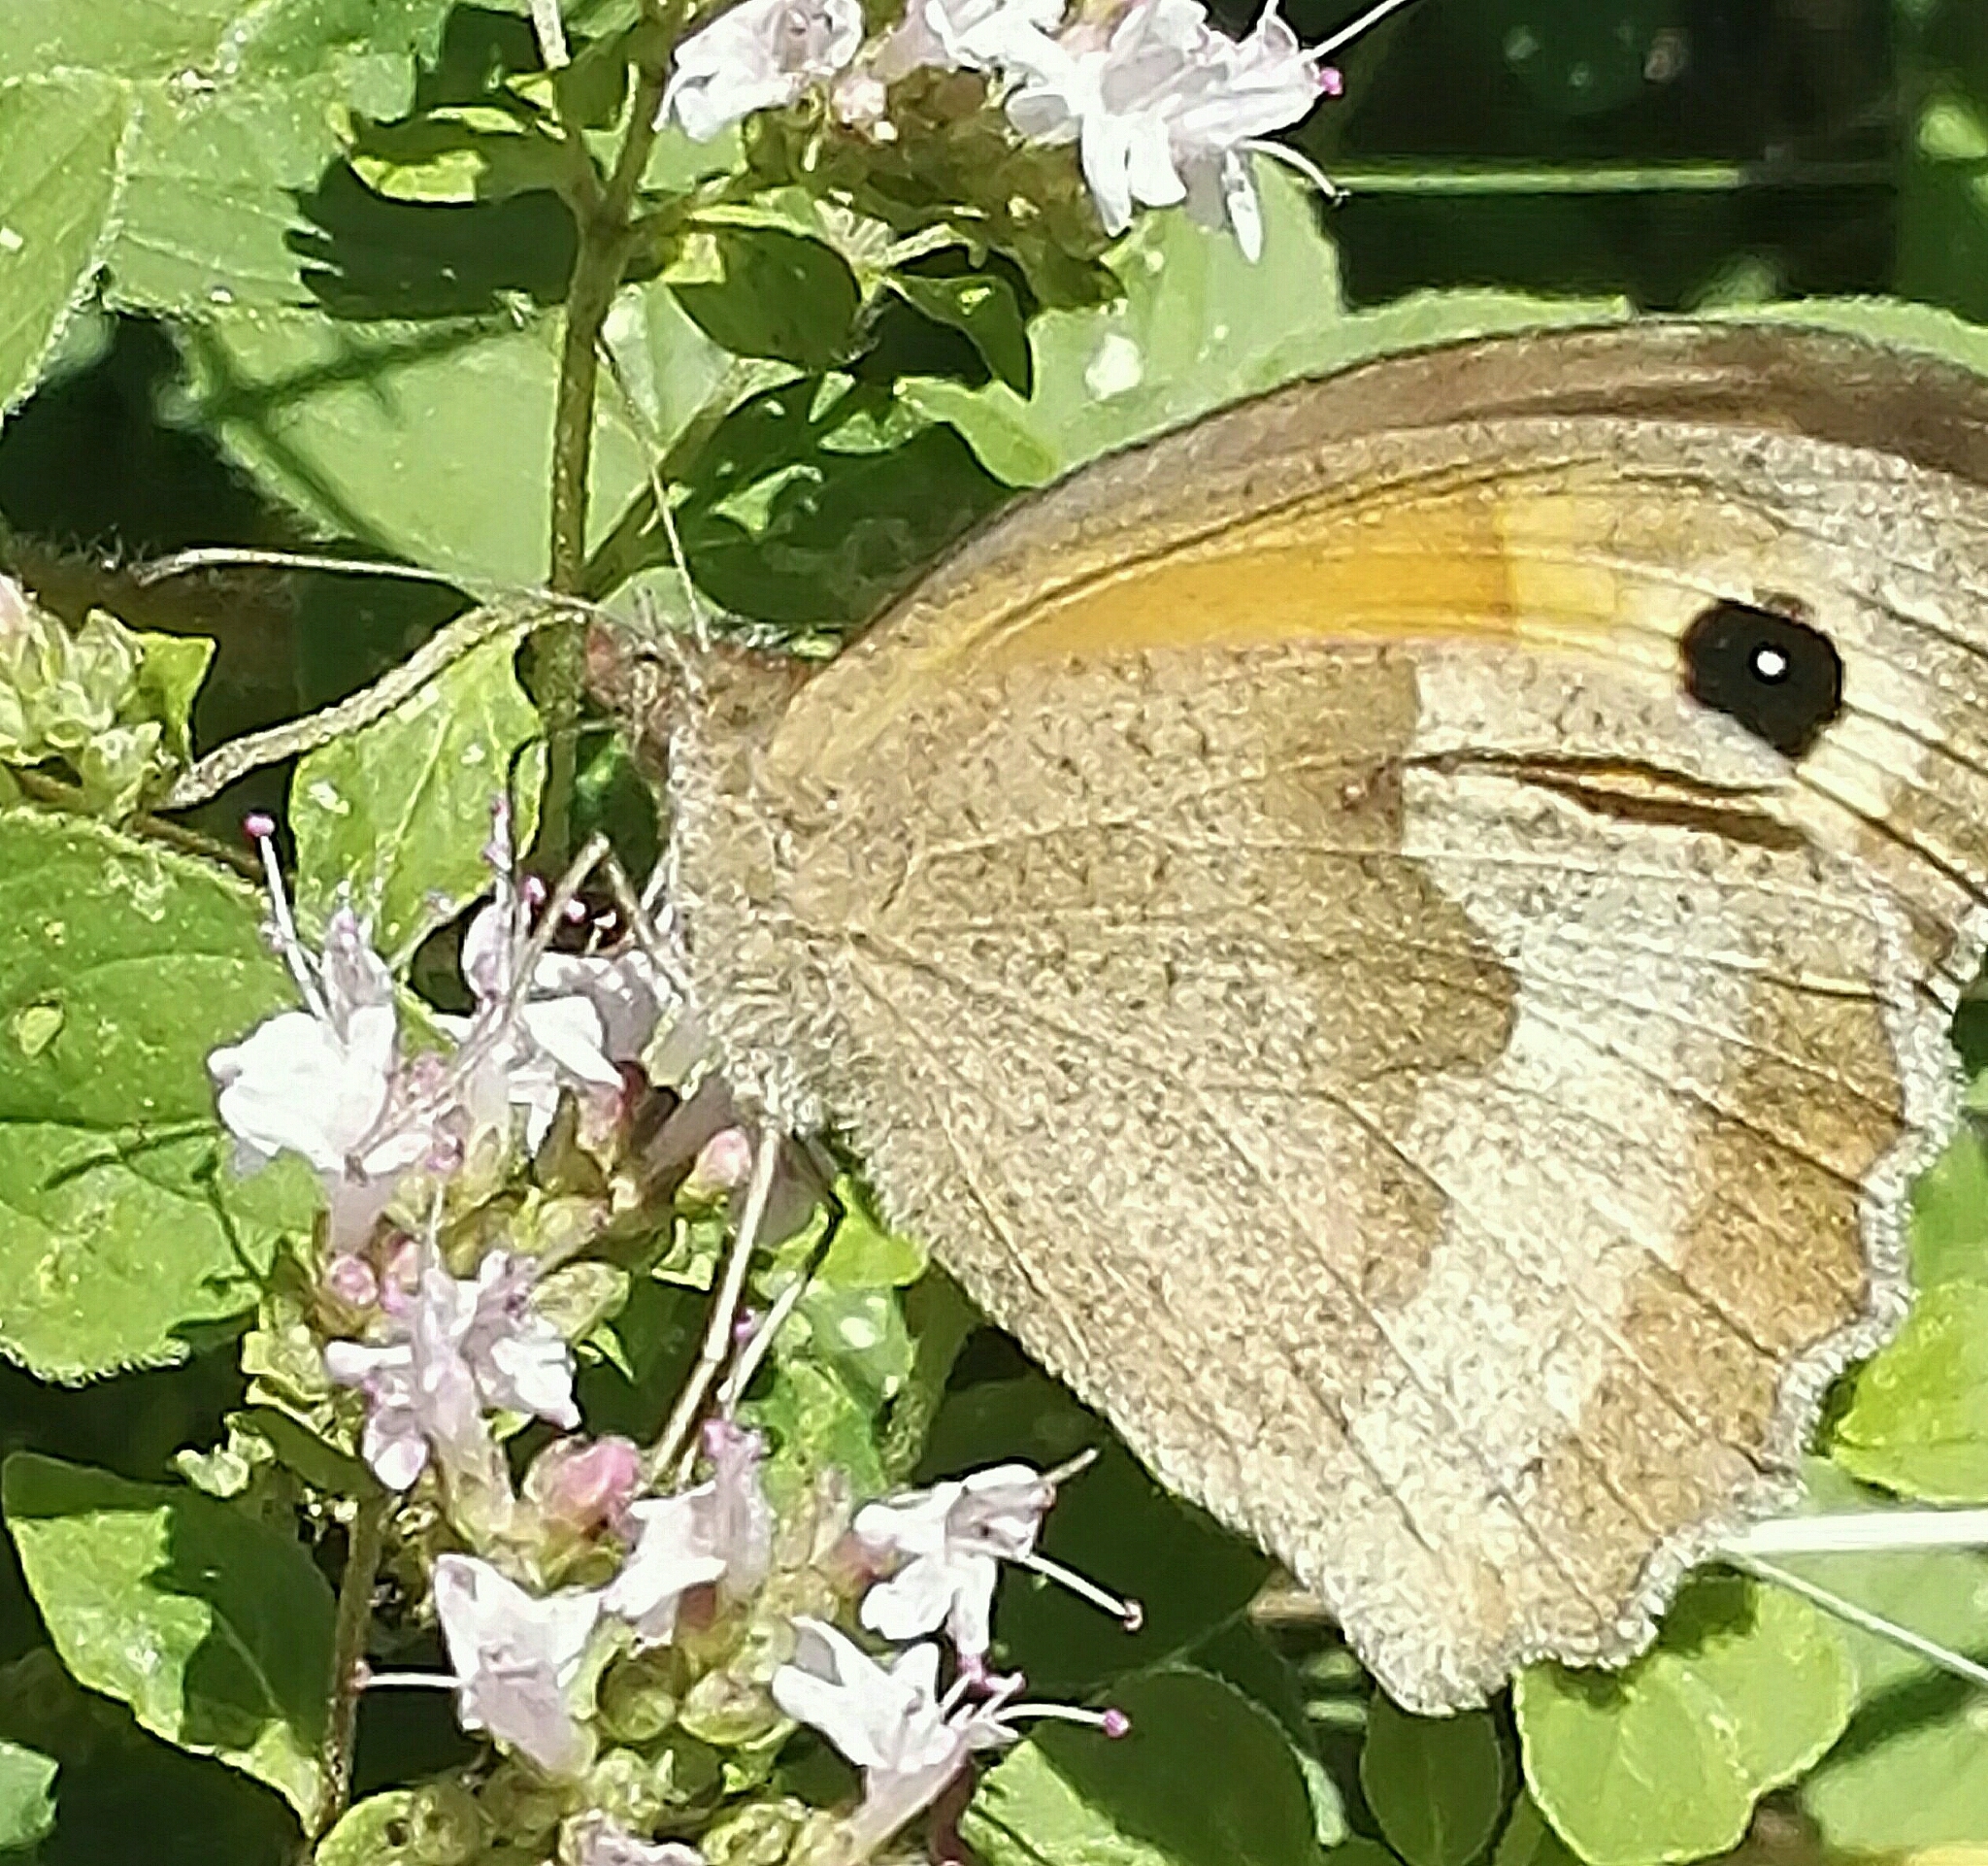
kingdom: Animalia
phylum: Arthropoda
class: Insecta
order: Lepidoptera
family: Nymphalidae
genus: Maniola
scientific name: Maniola jurtina
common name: Meadow brown
